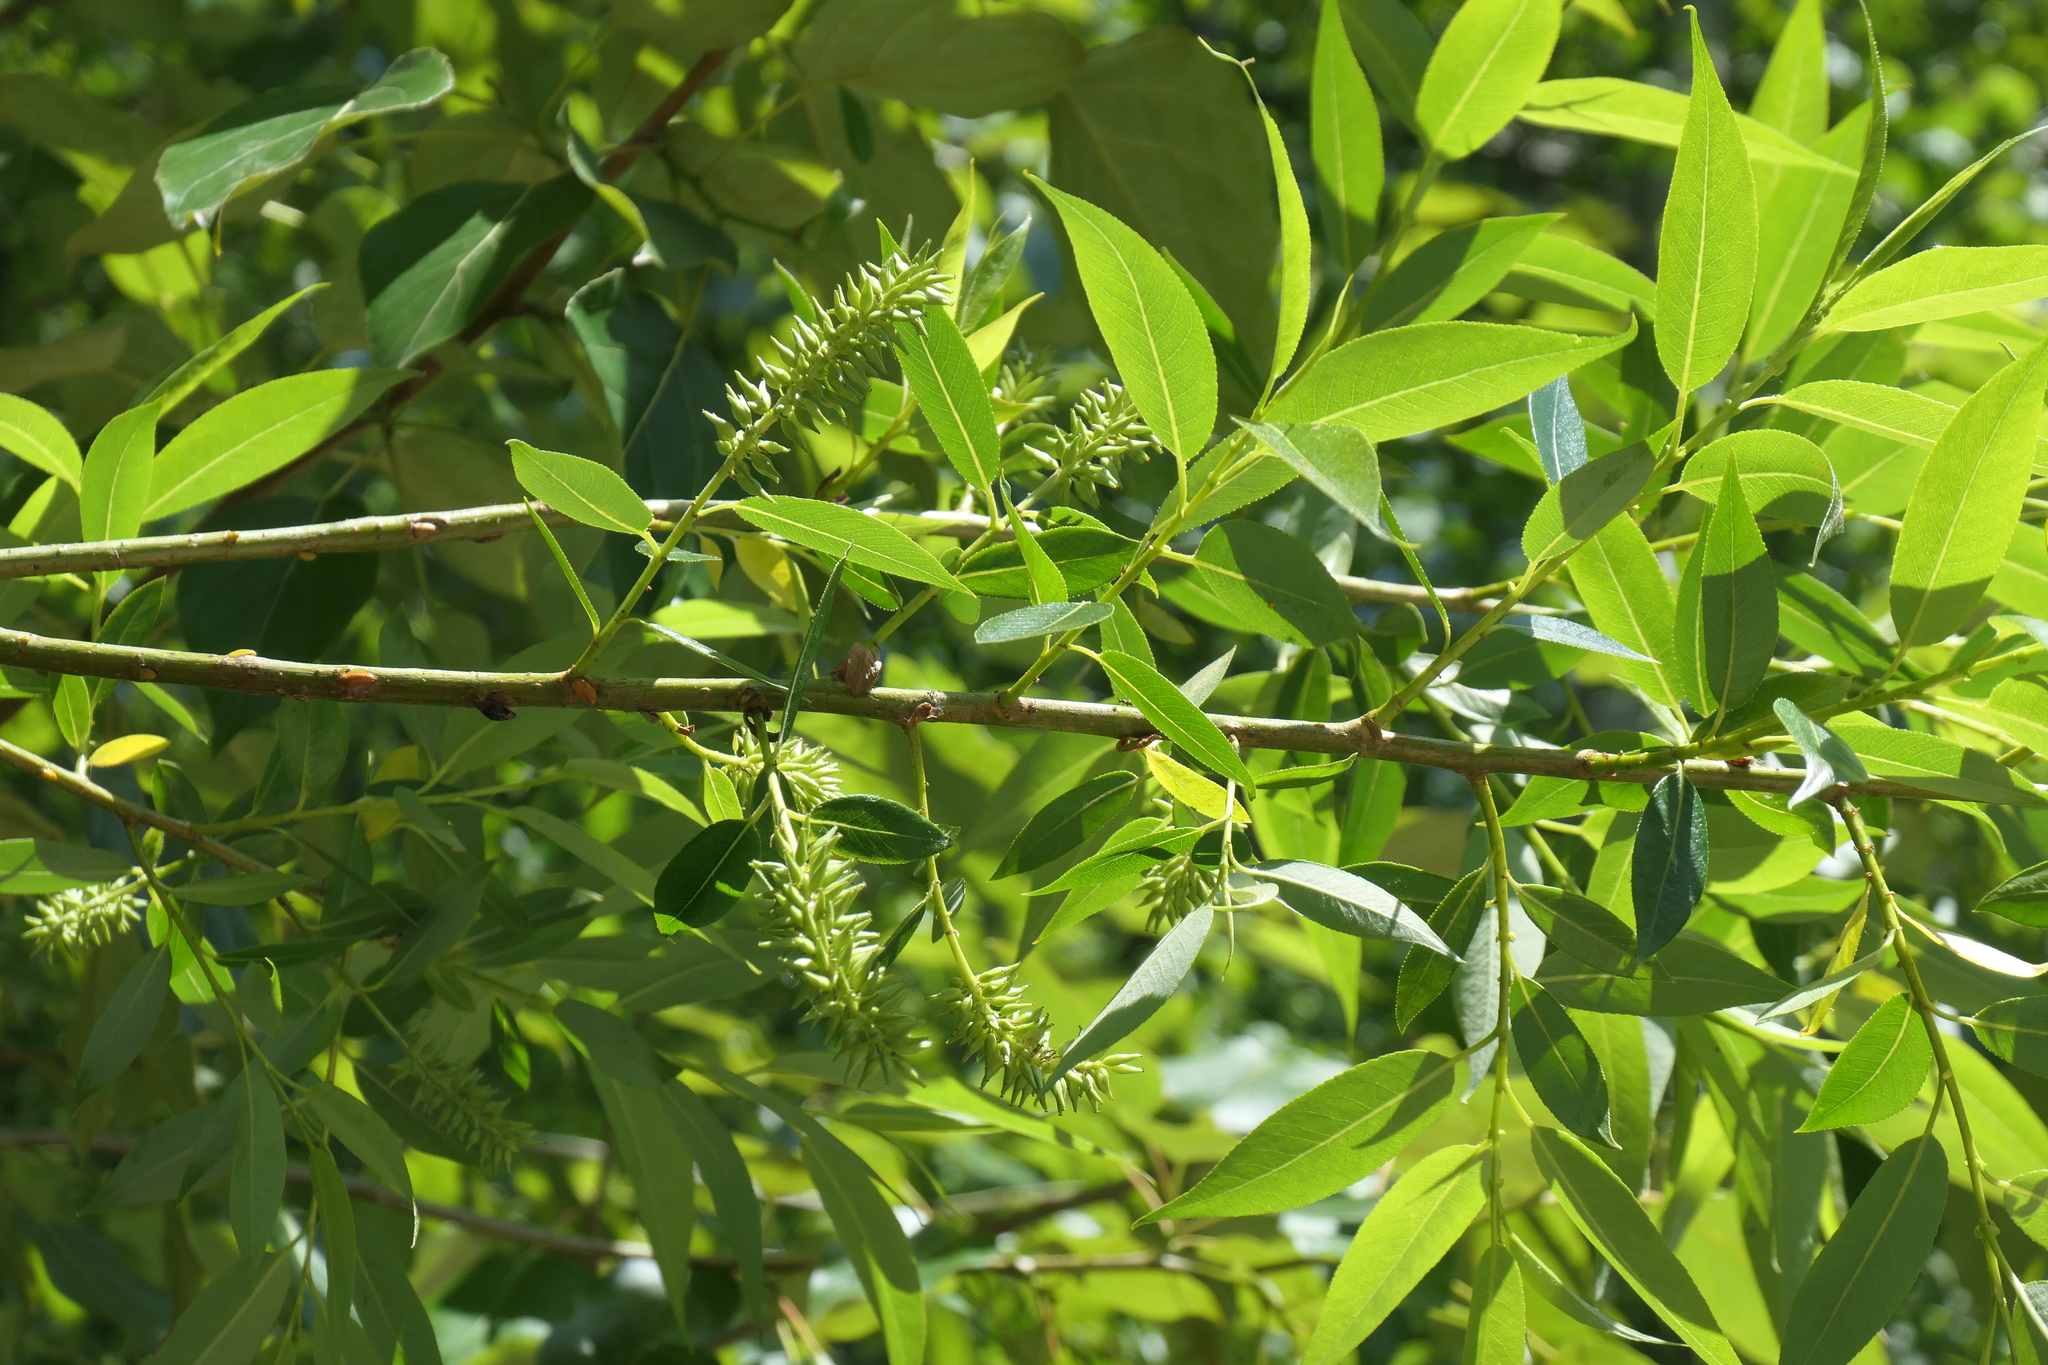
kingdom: Plantae
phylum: Tracheophyta
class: Magnoliopsida
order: Malpighiales
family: Salicaceae
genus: Salix
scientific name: Salix lucida
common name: Shining willow
